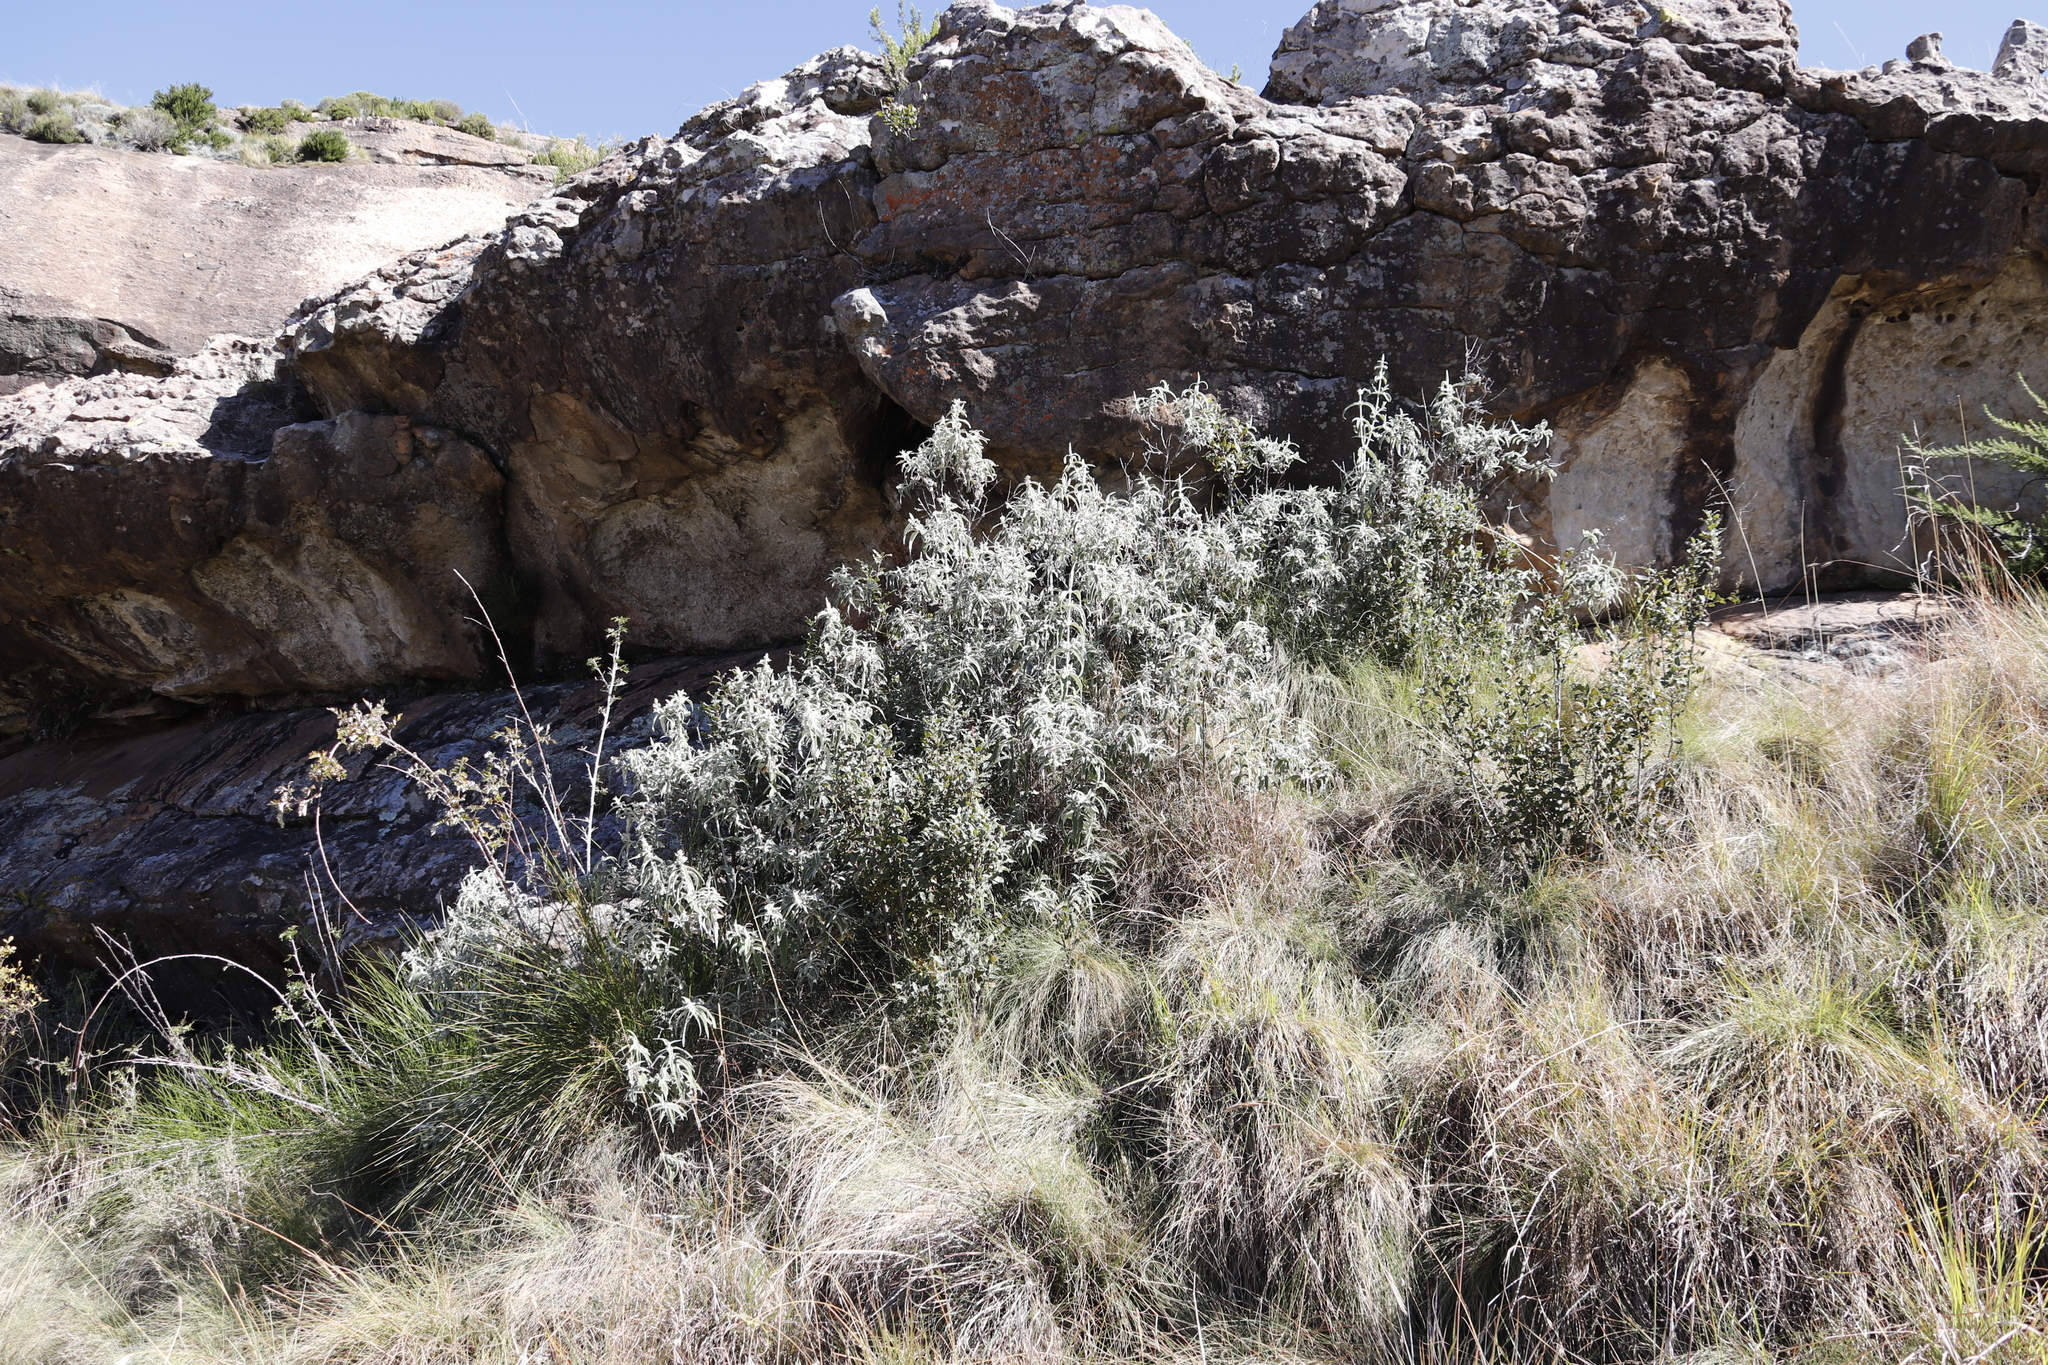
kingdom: Plantae
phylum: Tracheophyta
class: Magnoliopsida
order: Ericales
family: Ebenaceae
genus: Euclea
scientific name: Euclea coriacea
